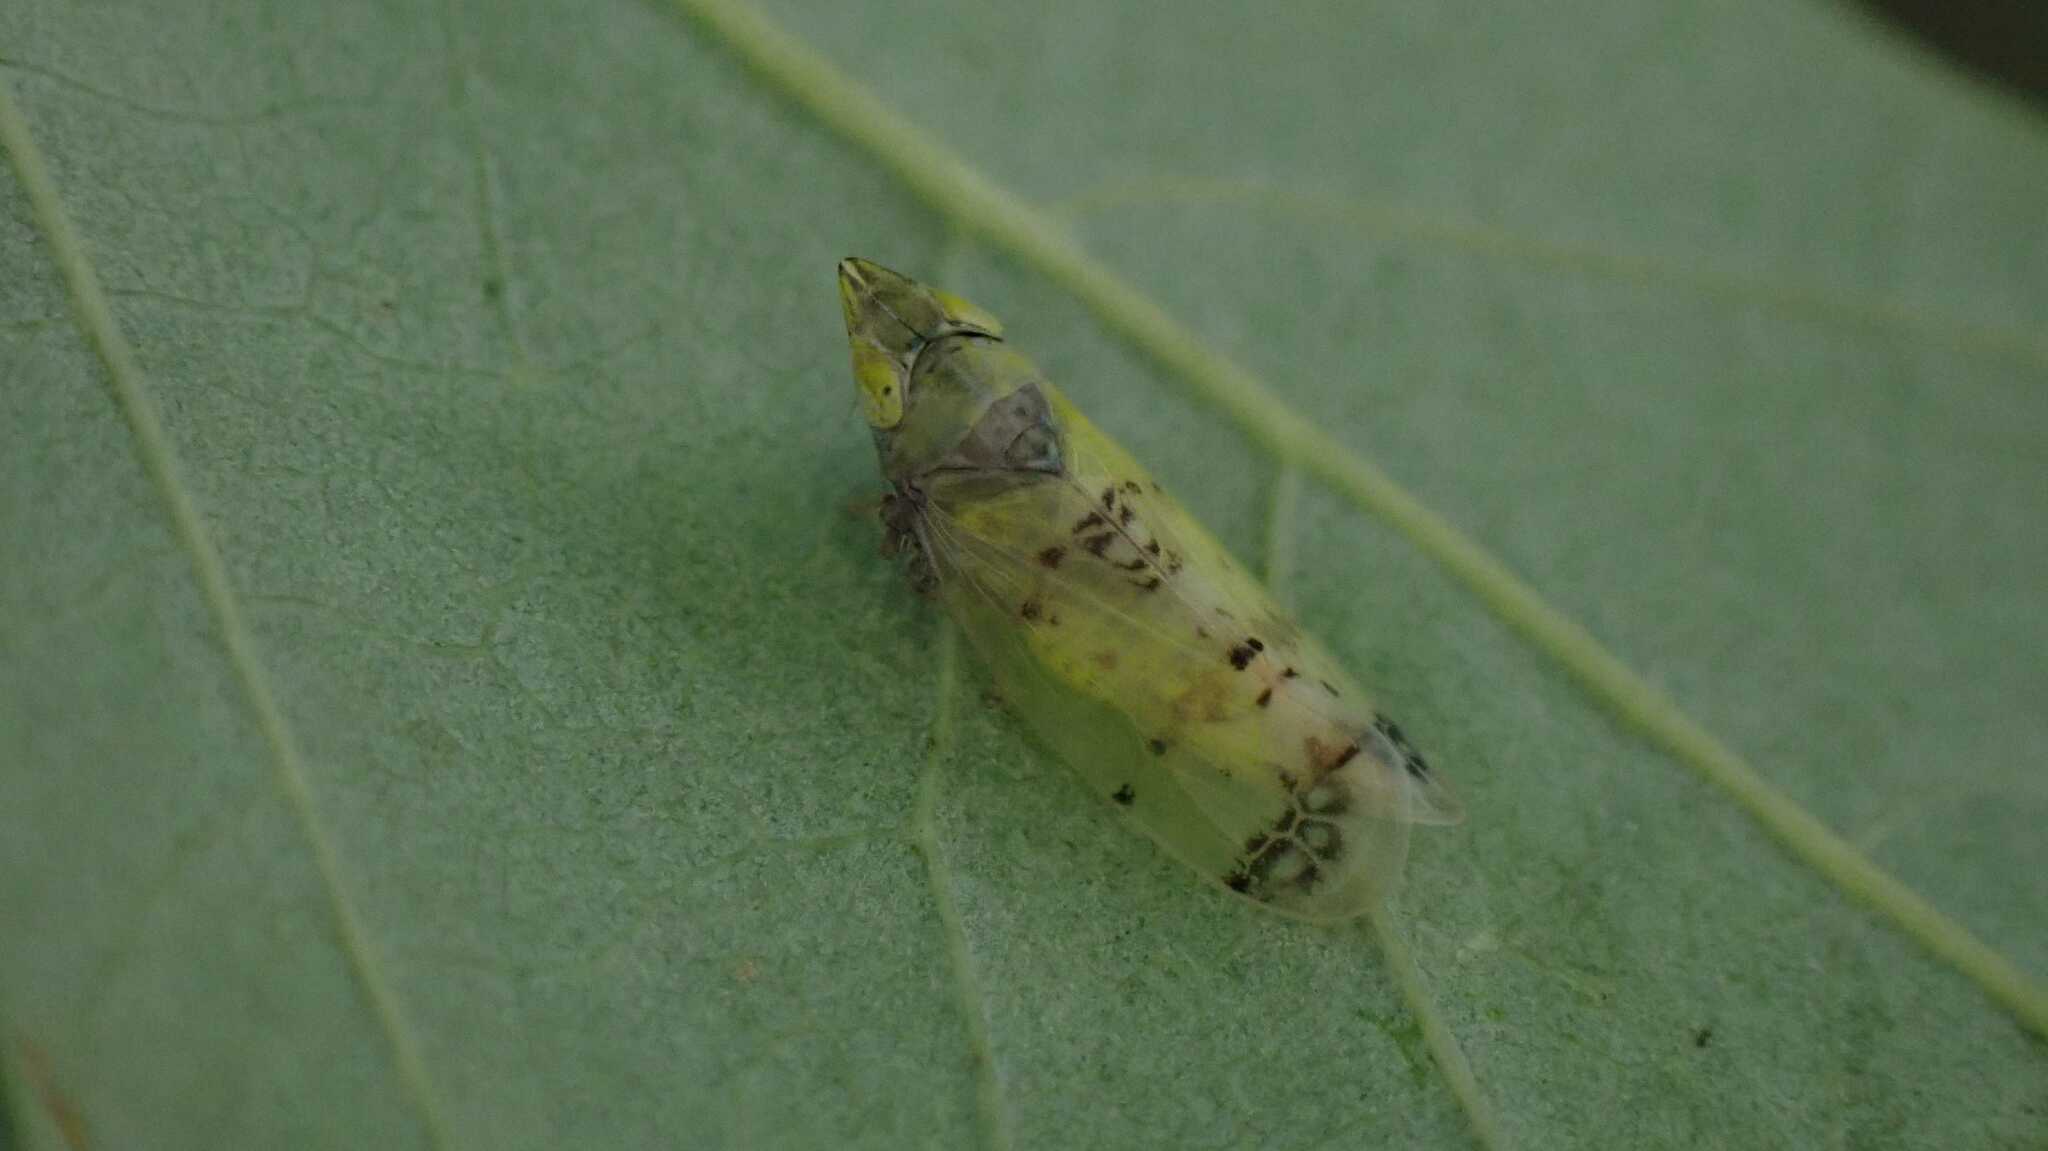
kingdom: Animalia
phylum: Arthropoda
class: Insecta
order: Hemiptera
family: Cicadellidae
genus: Japananus
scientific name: Japananus hyalinus
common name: The japanese maple leafhopper
